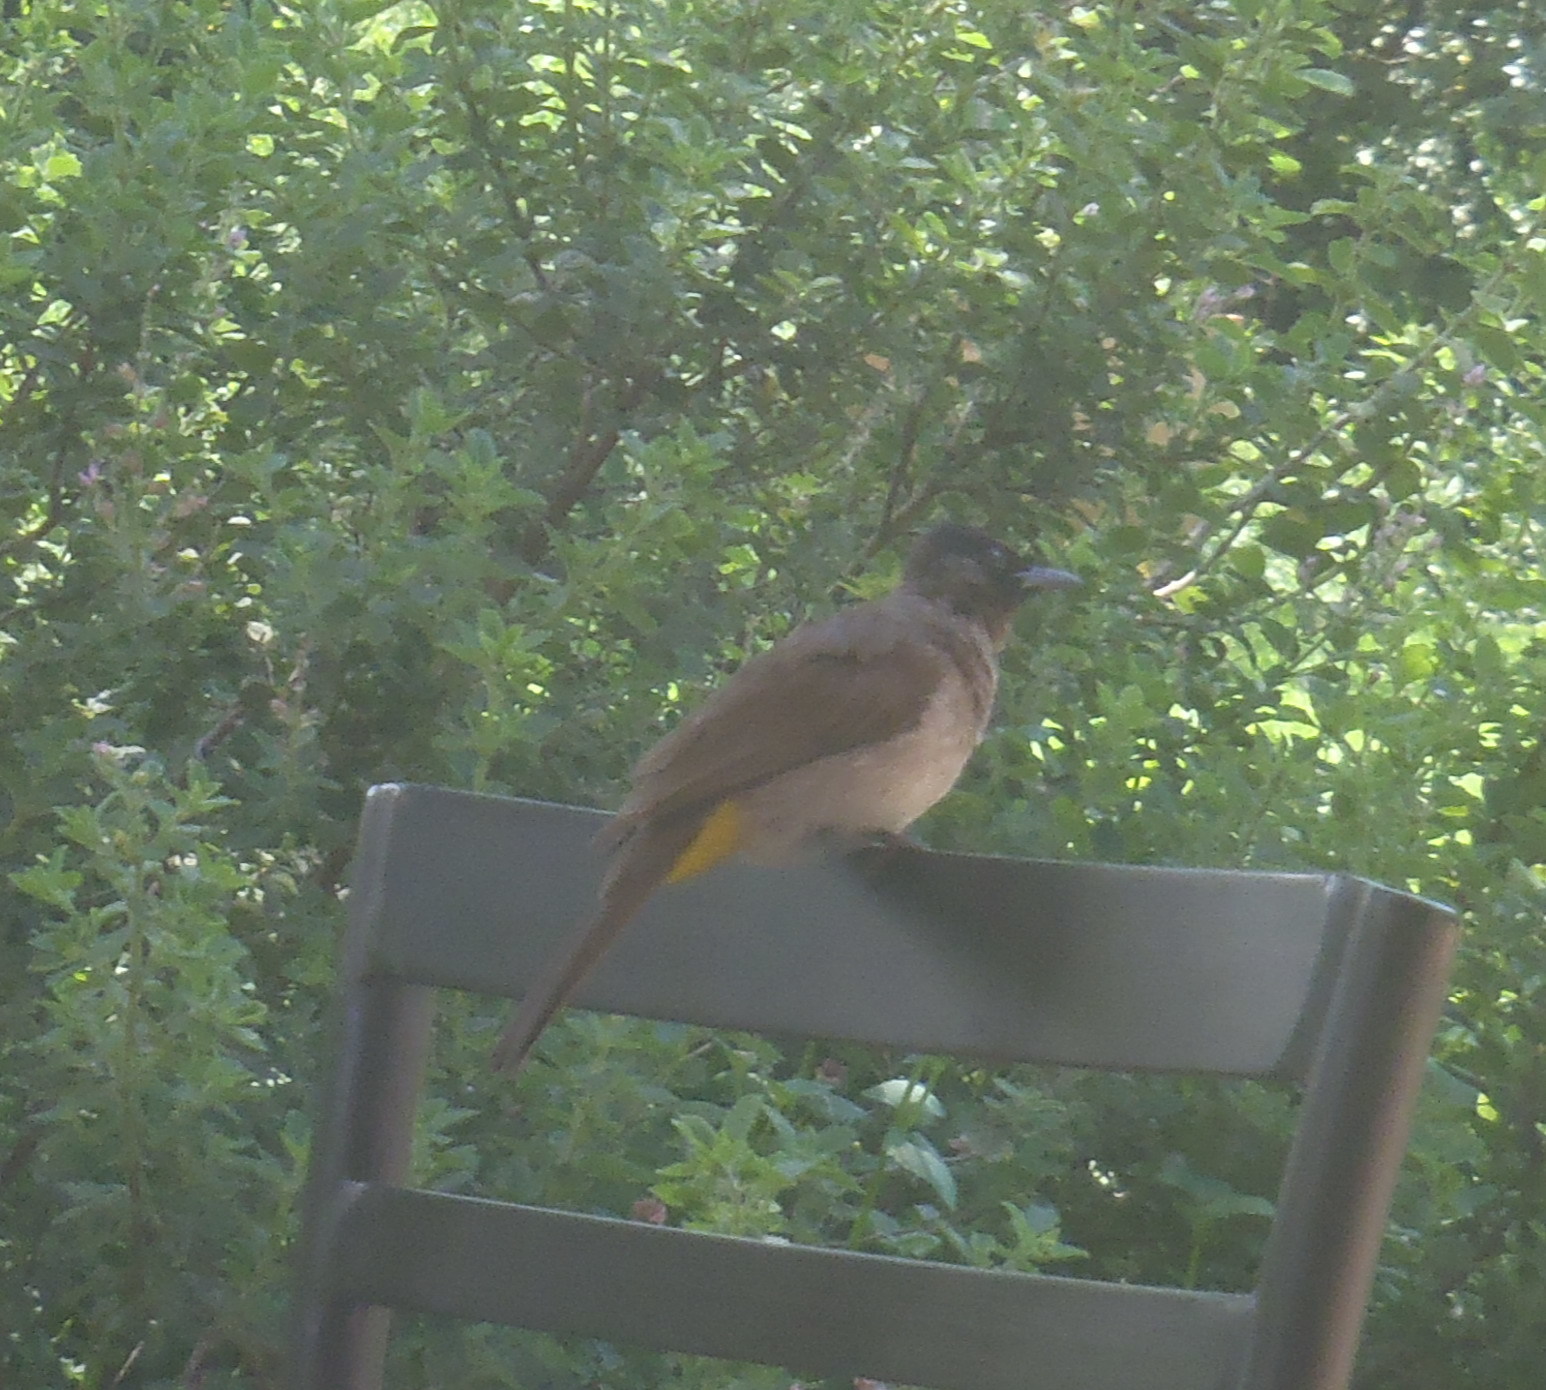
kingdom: Animalia
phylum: Chordata
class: Aves
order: Passeriformes
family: Pycnonotidae
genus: Pycnonotus
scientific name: Pycnonotus barbatus
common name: Common bulbul
